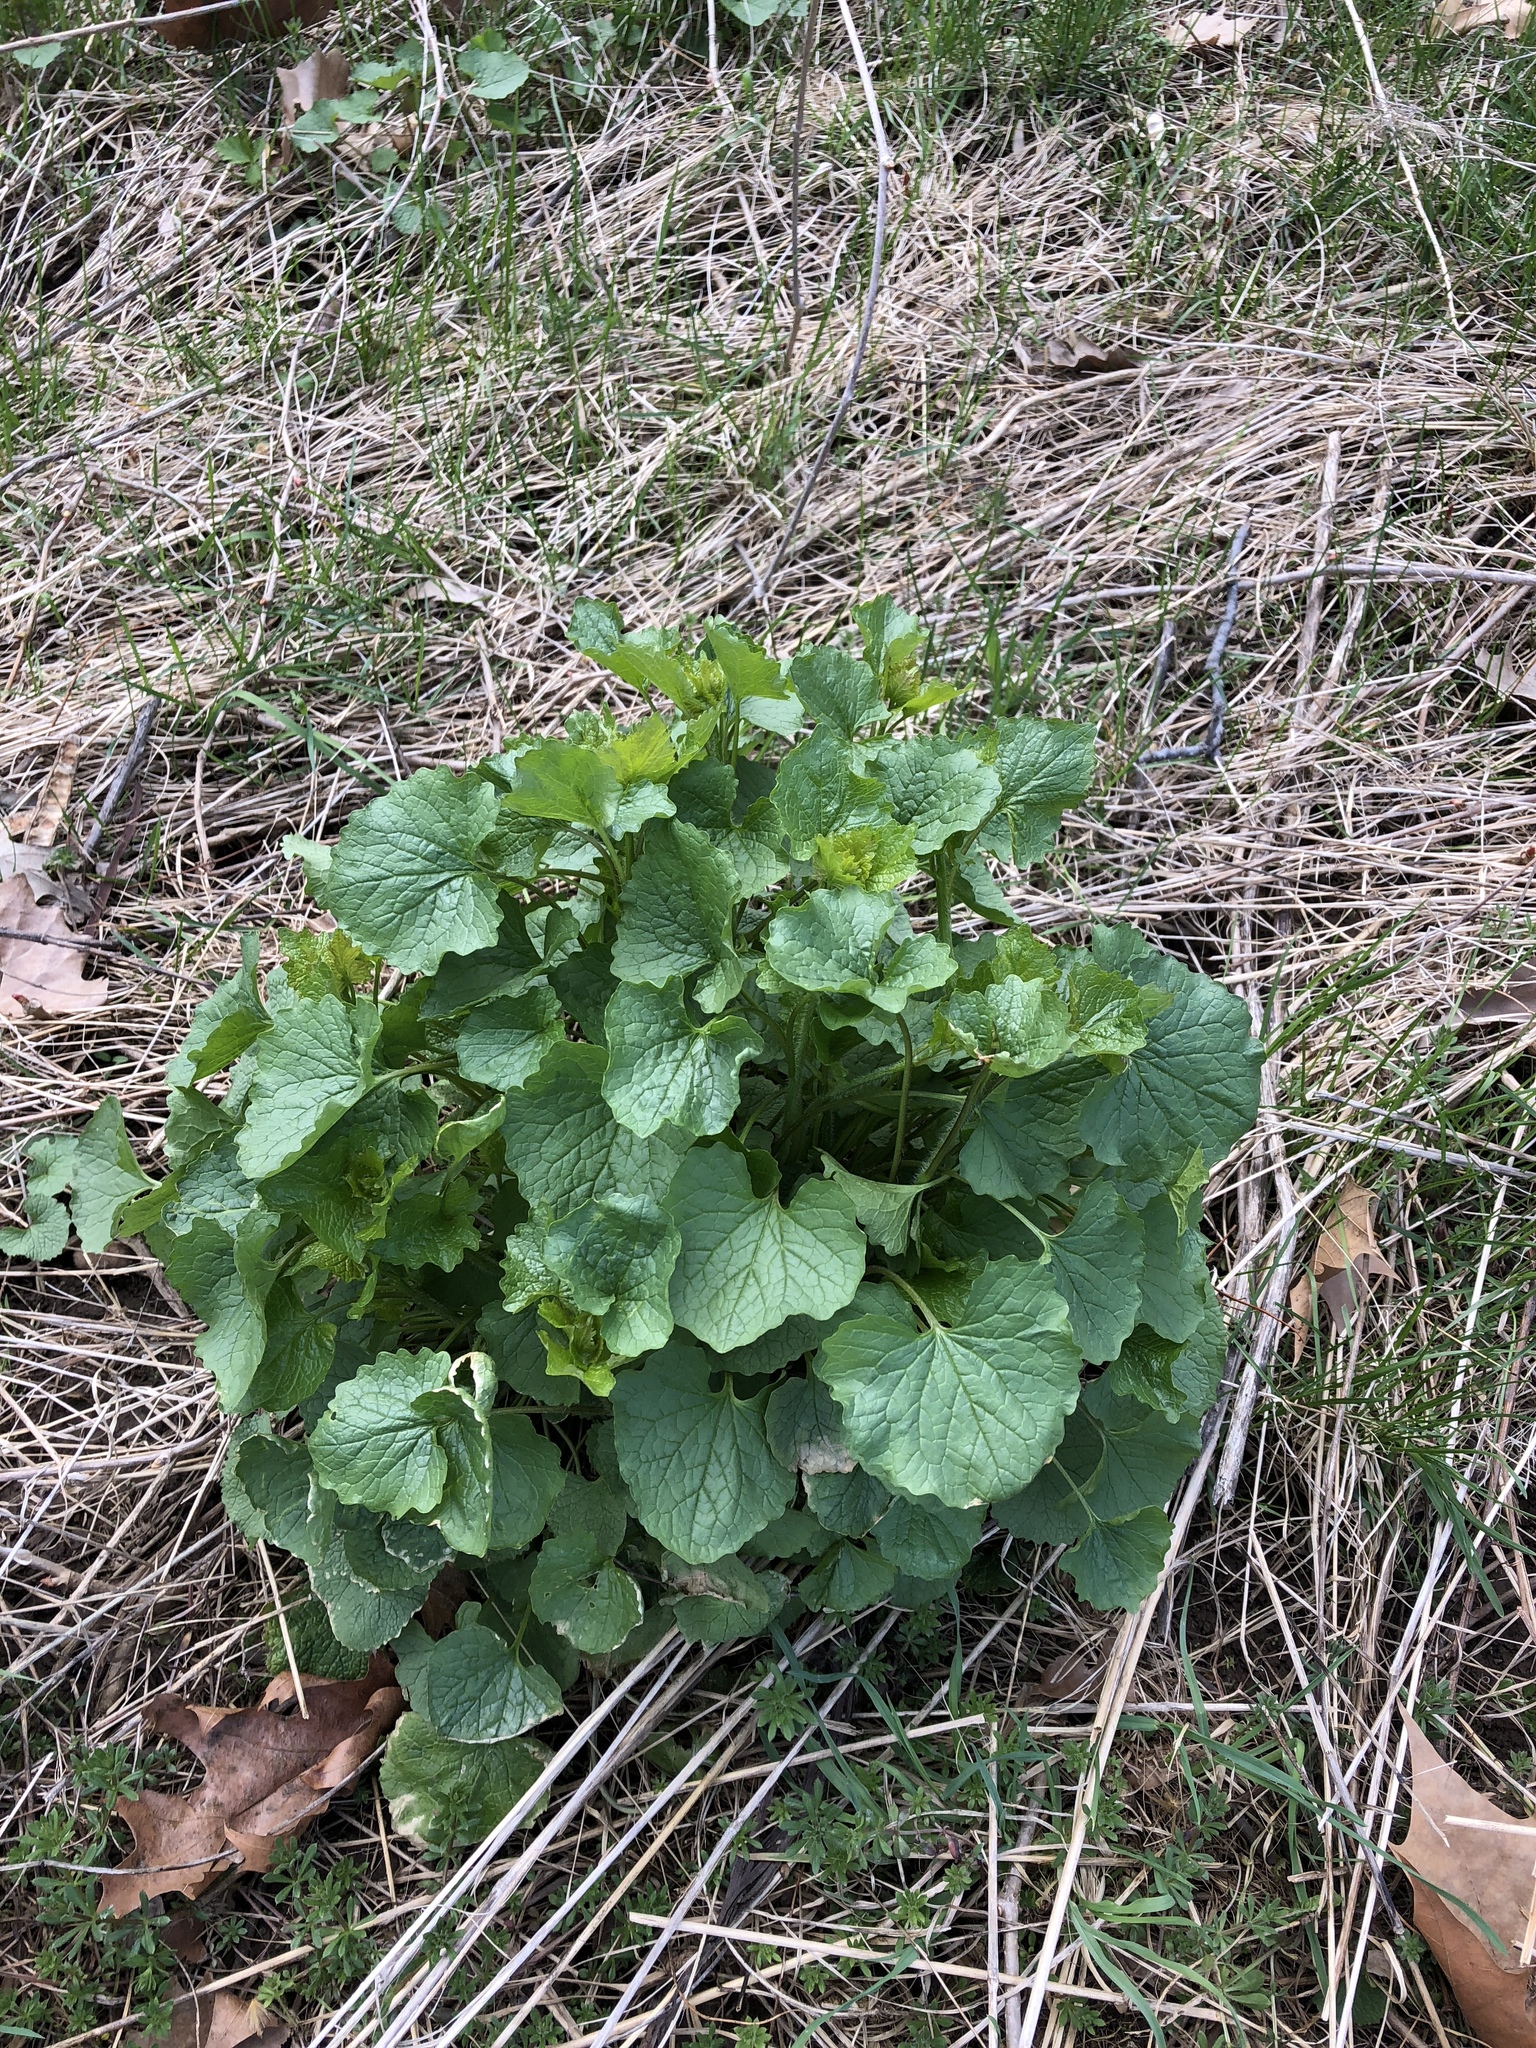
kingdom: Plantae
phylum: Tracheophyta
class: Magnoliopsida
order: Brassicales
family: Brassicaceae
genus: Alliaria
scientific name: Alliaria petiolata
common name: Garlic mustard
